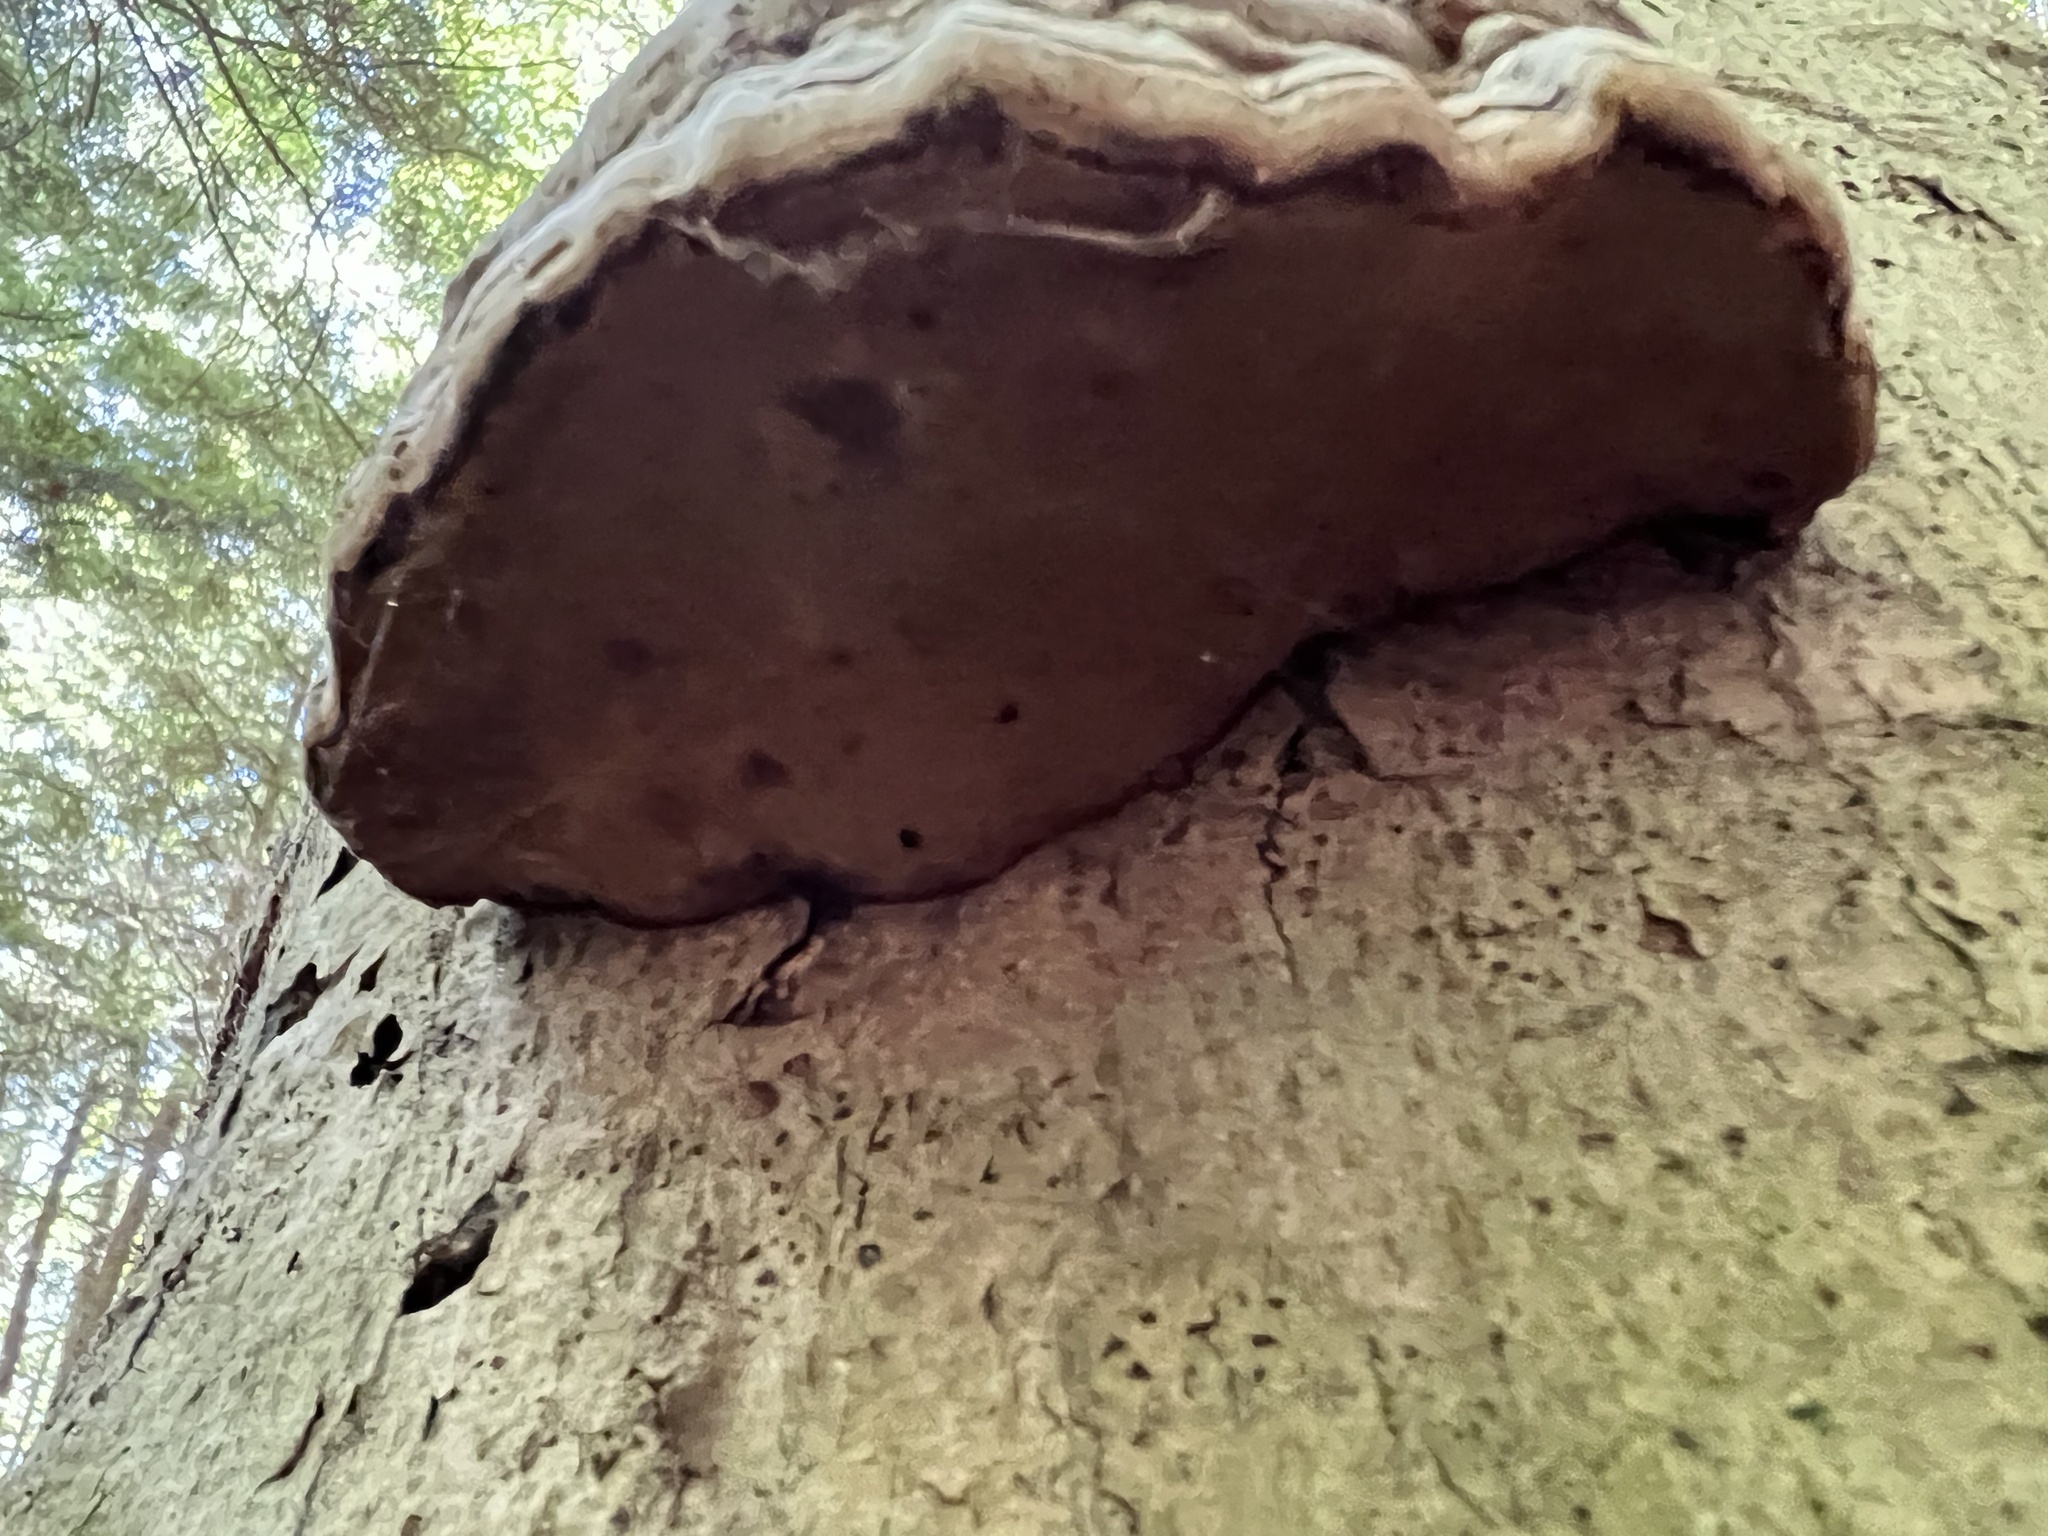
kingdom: Fungi
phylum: Basidiomycota
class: Agaricomycetes
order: Polyporales
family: Polyporaceae
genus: Fomes
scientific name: Fomes fomentarius
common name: Hoof fungus
